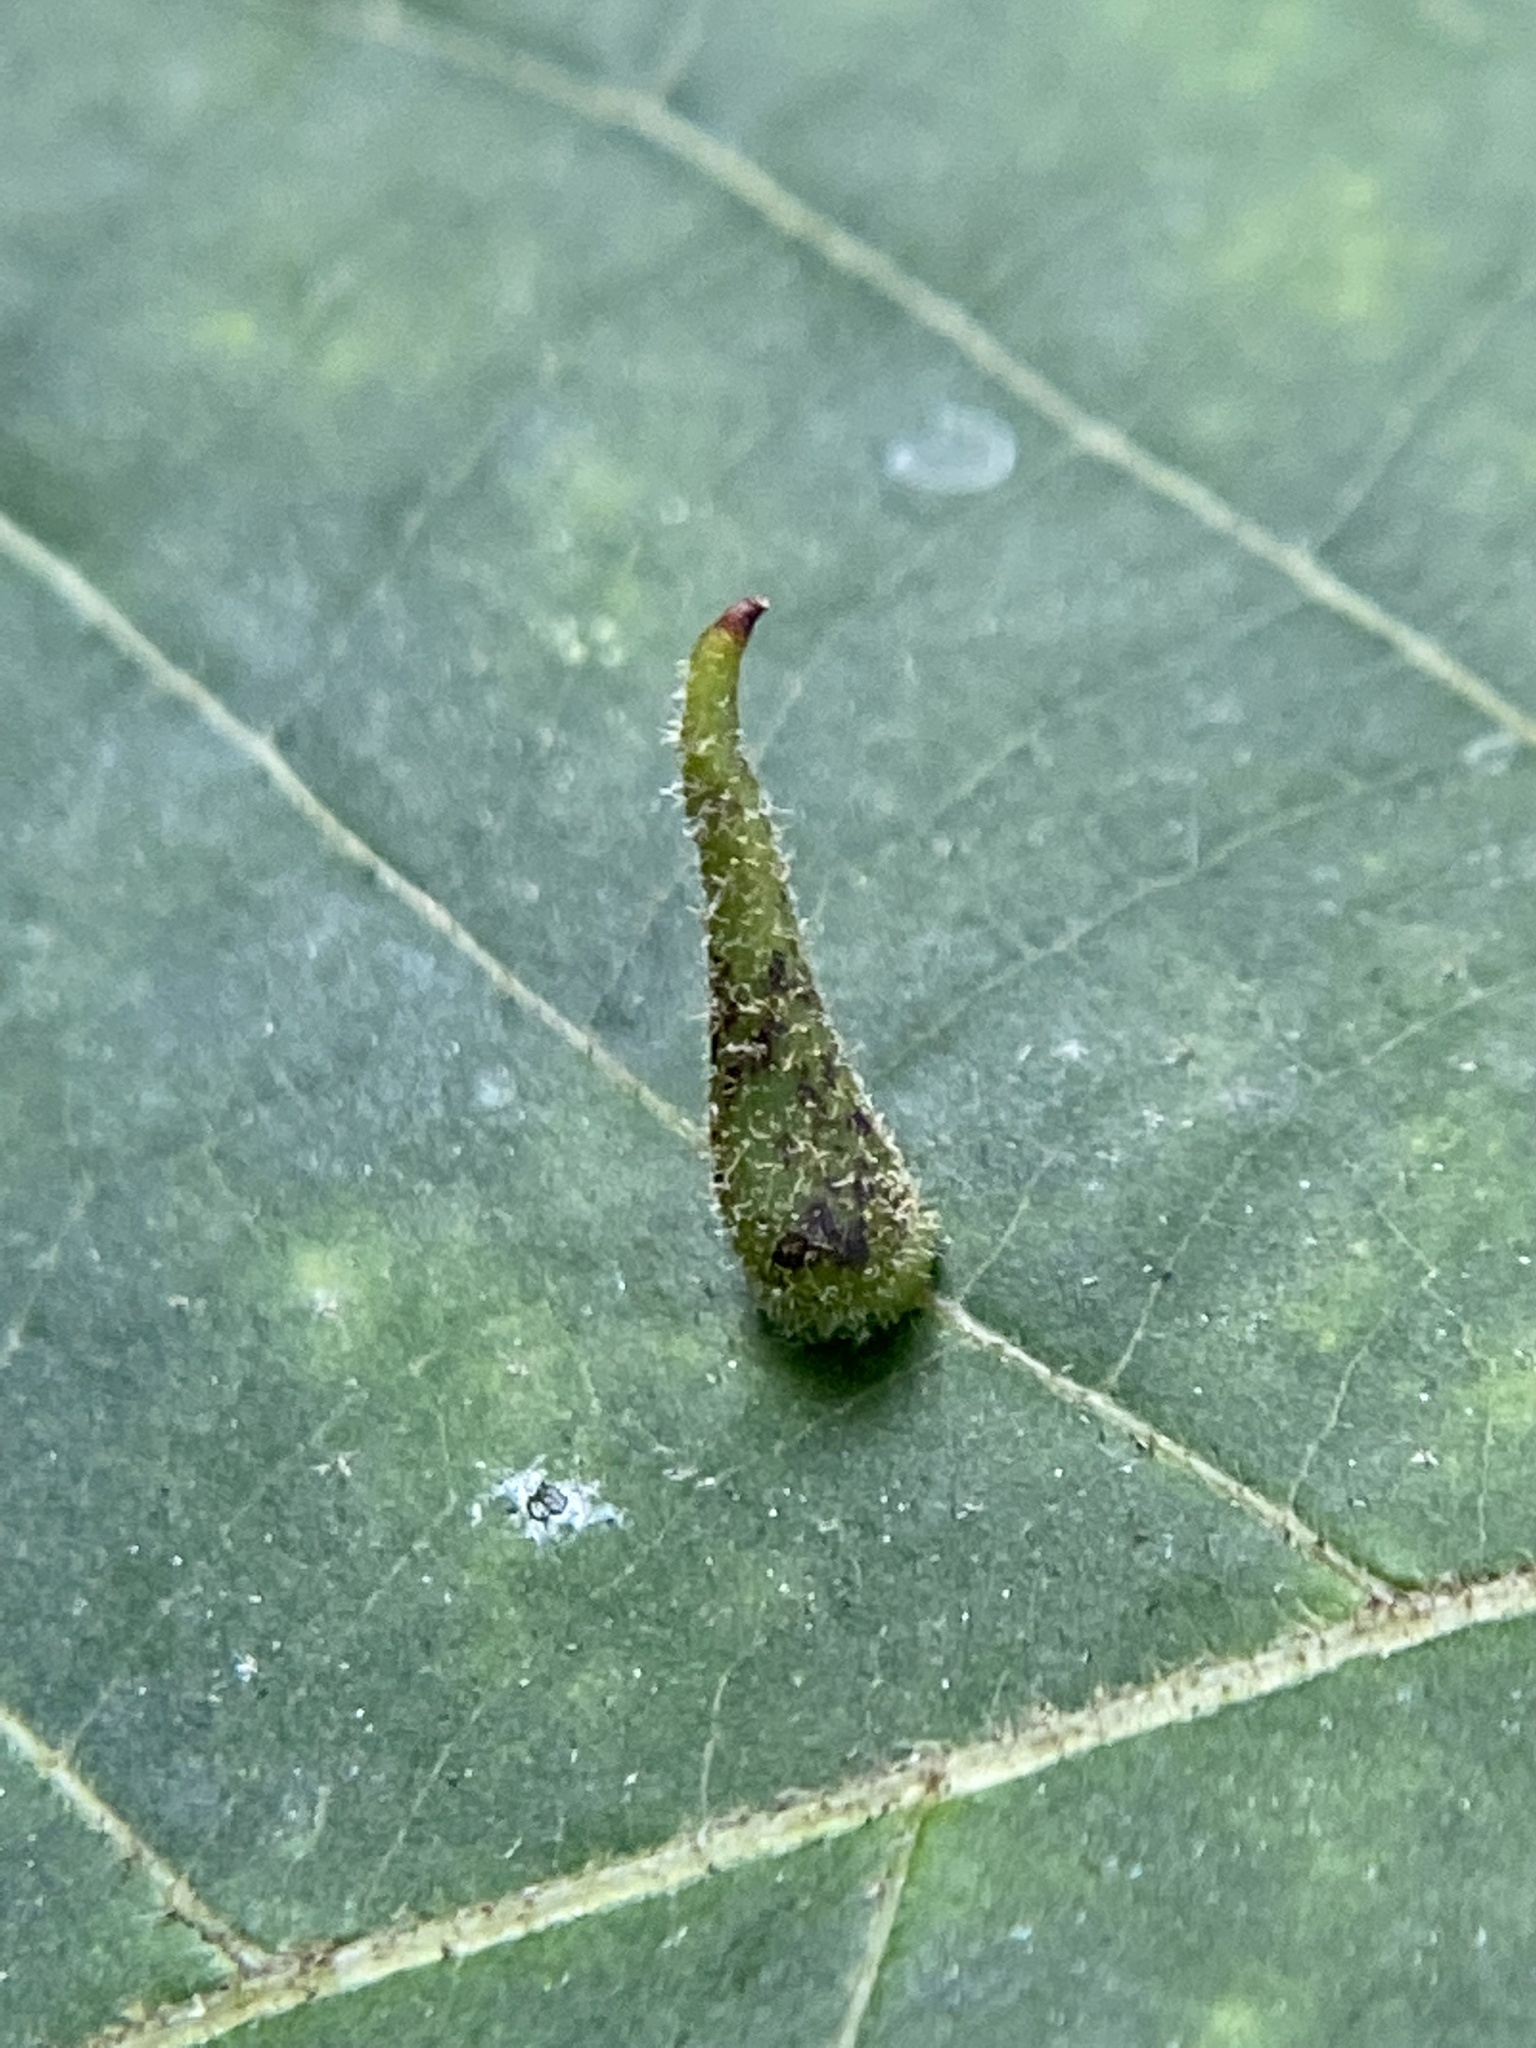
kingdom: Animalia
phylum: Arthropoda
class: Insecta
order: Diptera
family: Cecidomyiidae
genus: Caryomyia
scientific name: Caryomyia spinulosa
